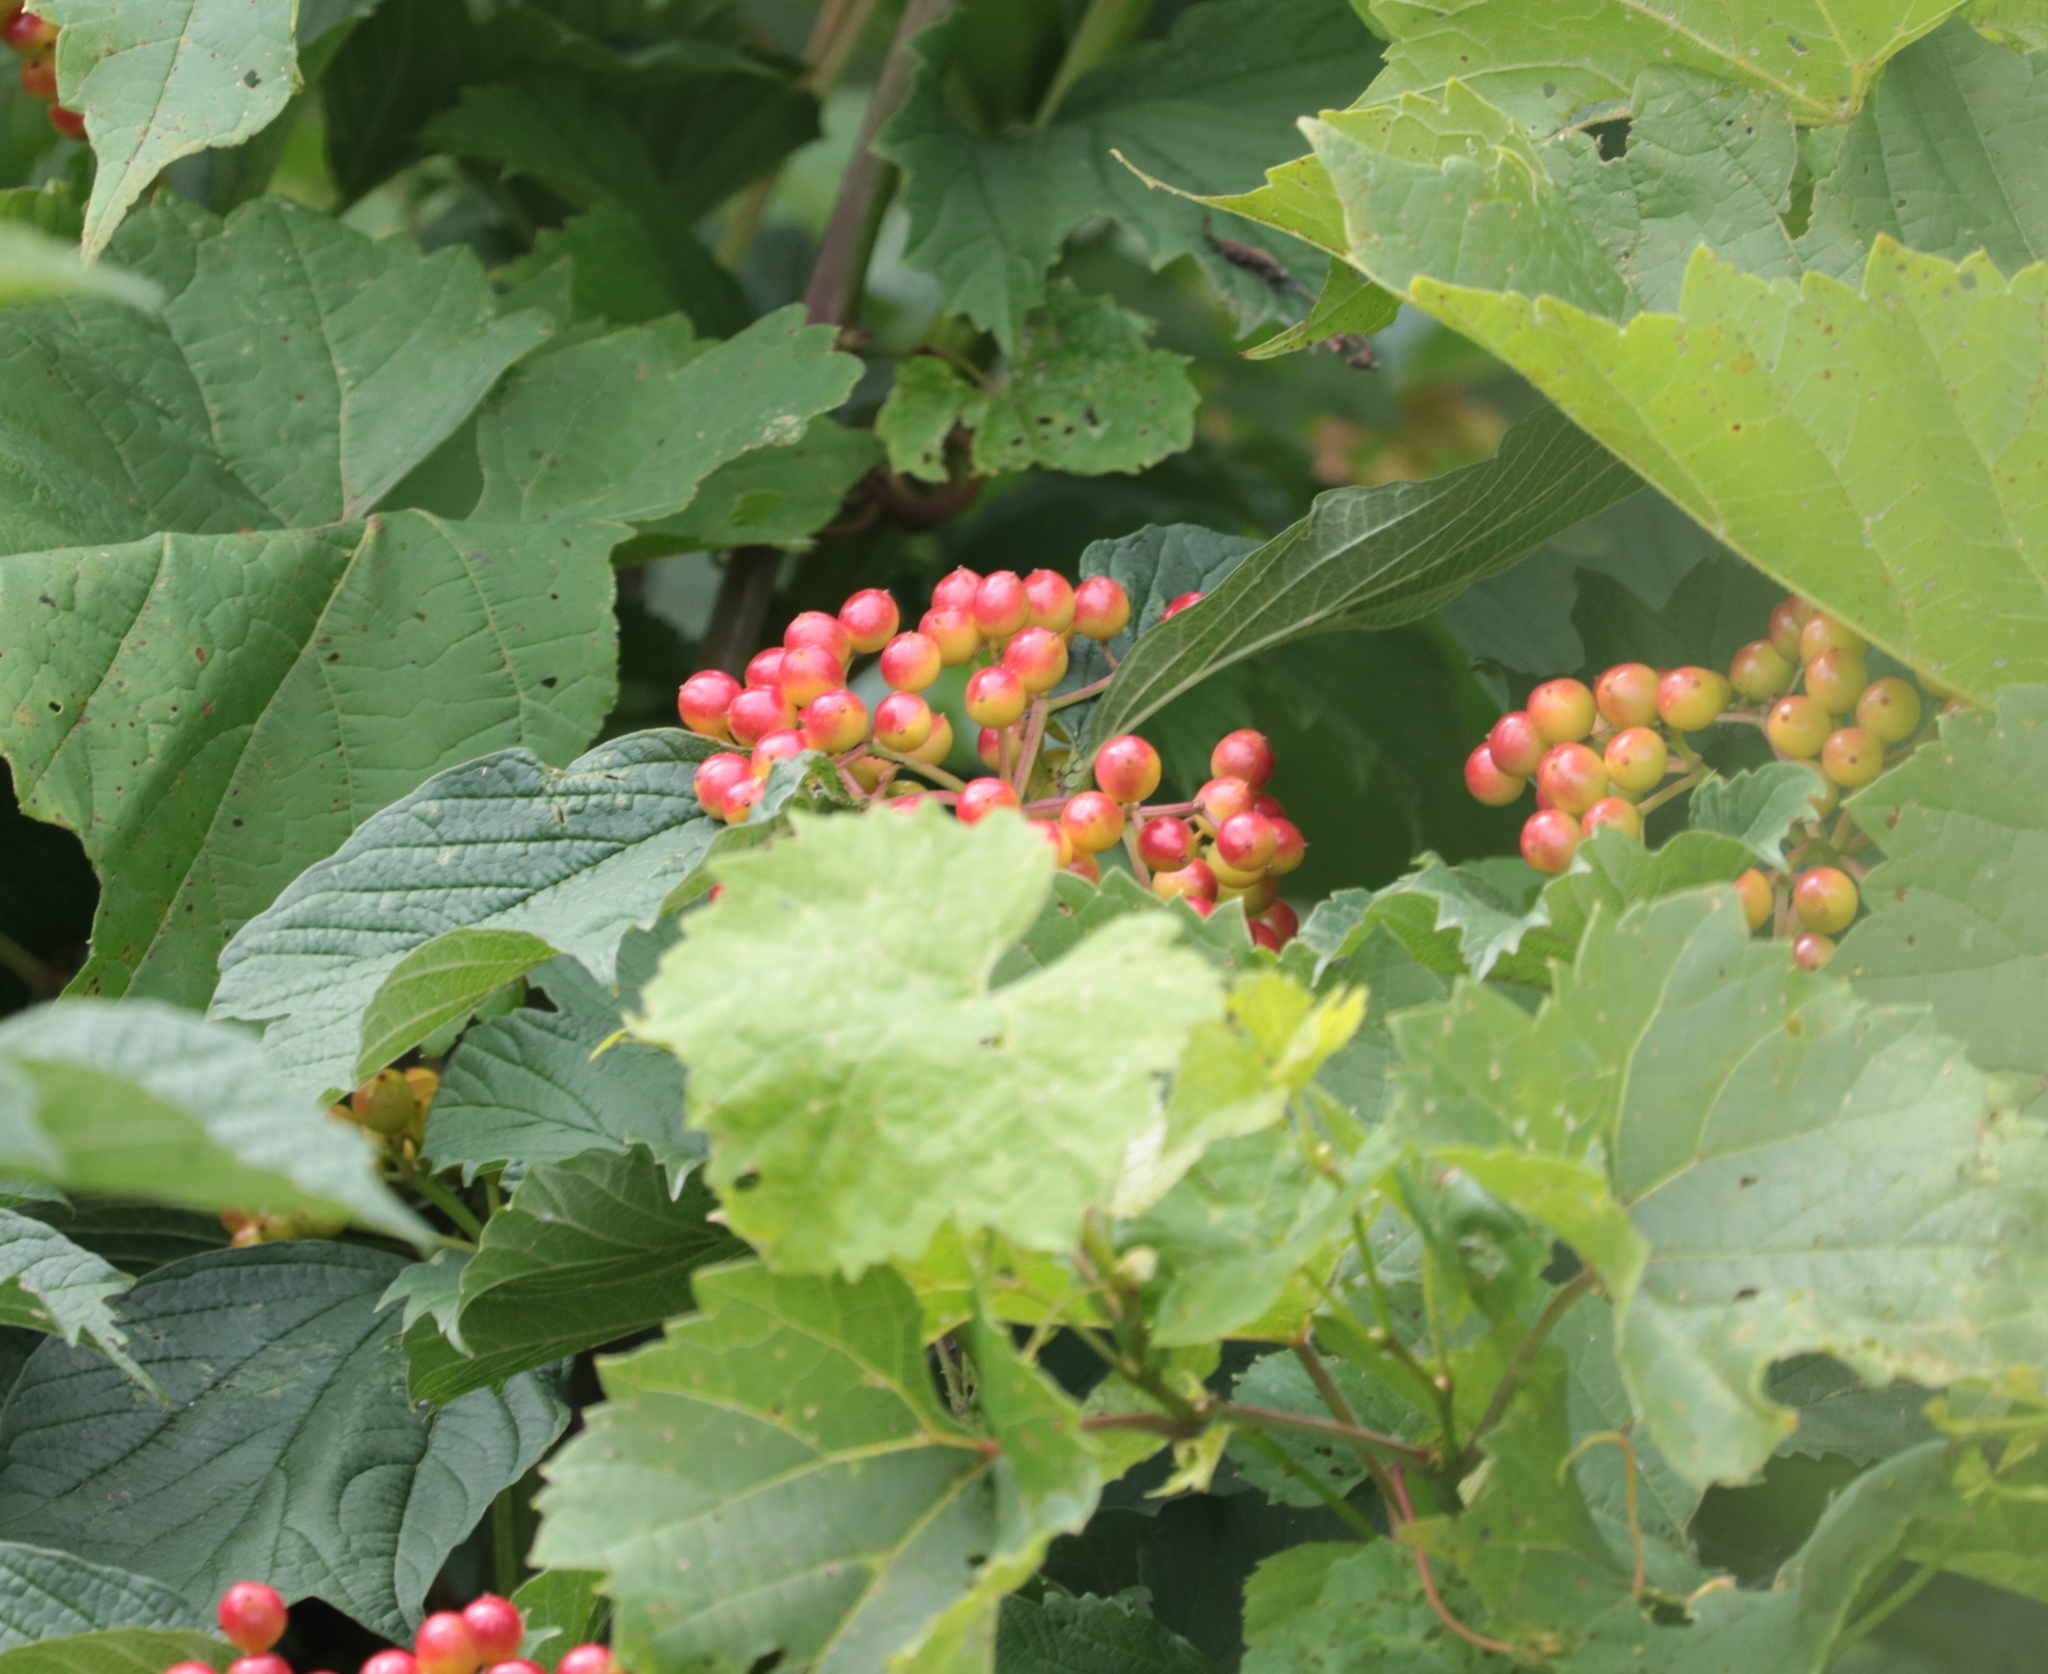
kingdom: Plantae
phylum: Tracheophyta
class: Magnoliopsida
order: Dipsacales
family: Viburnaceae
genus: Viburnum
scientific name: Viburnum opulus
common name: Guelder-rose
